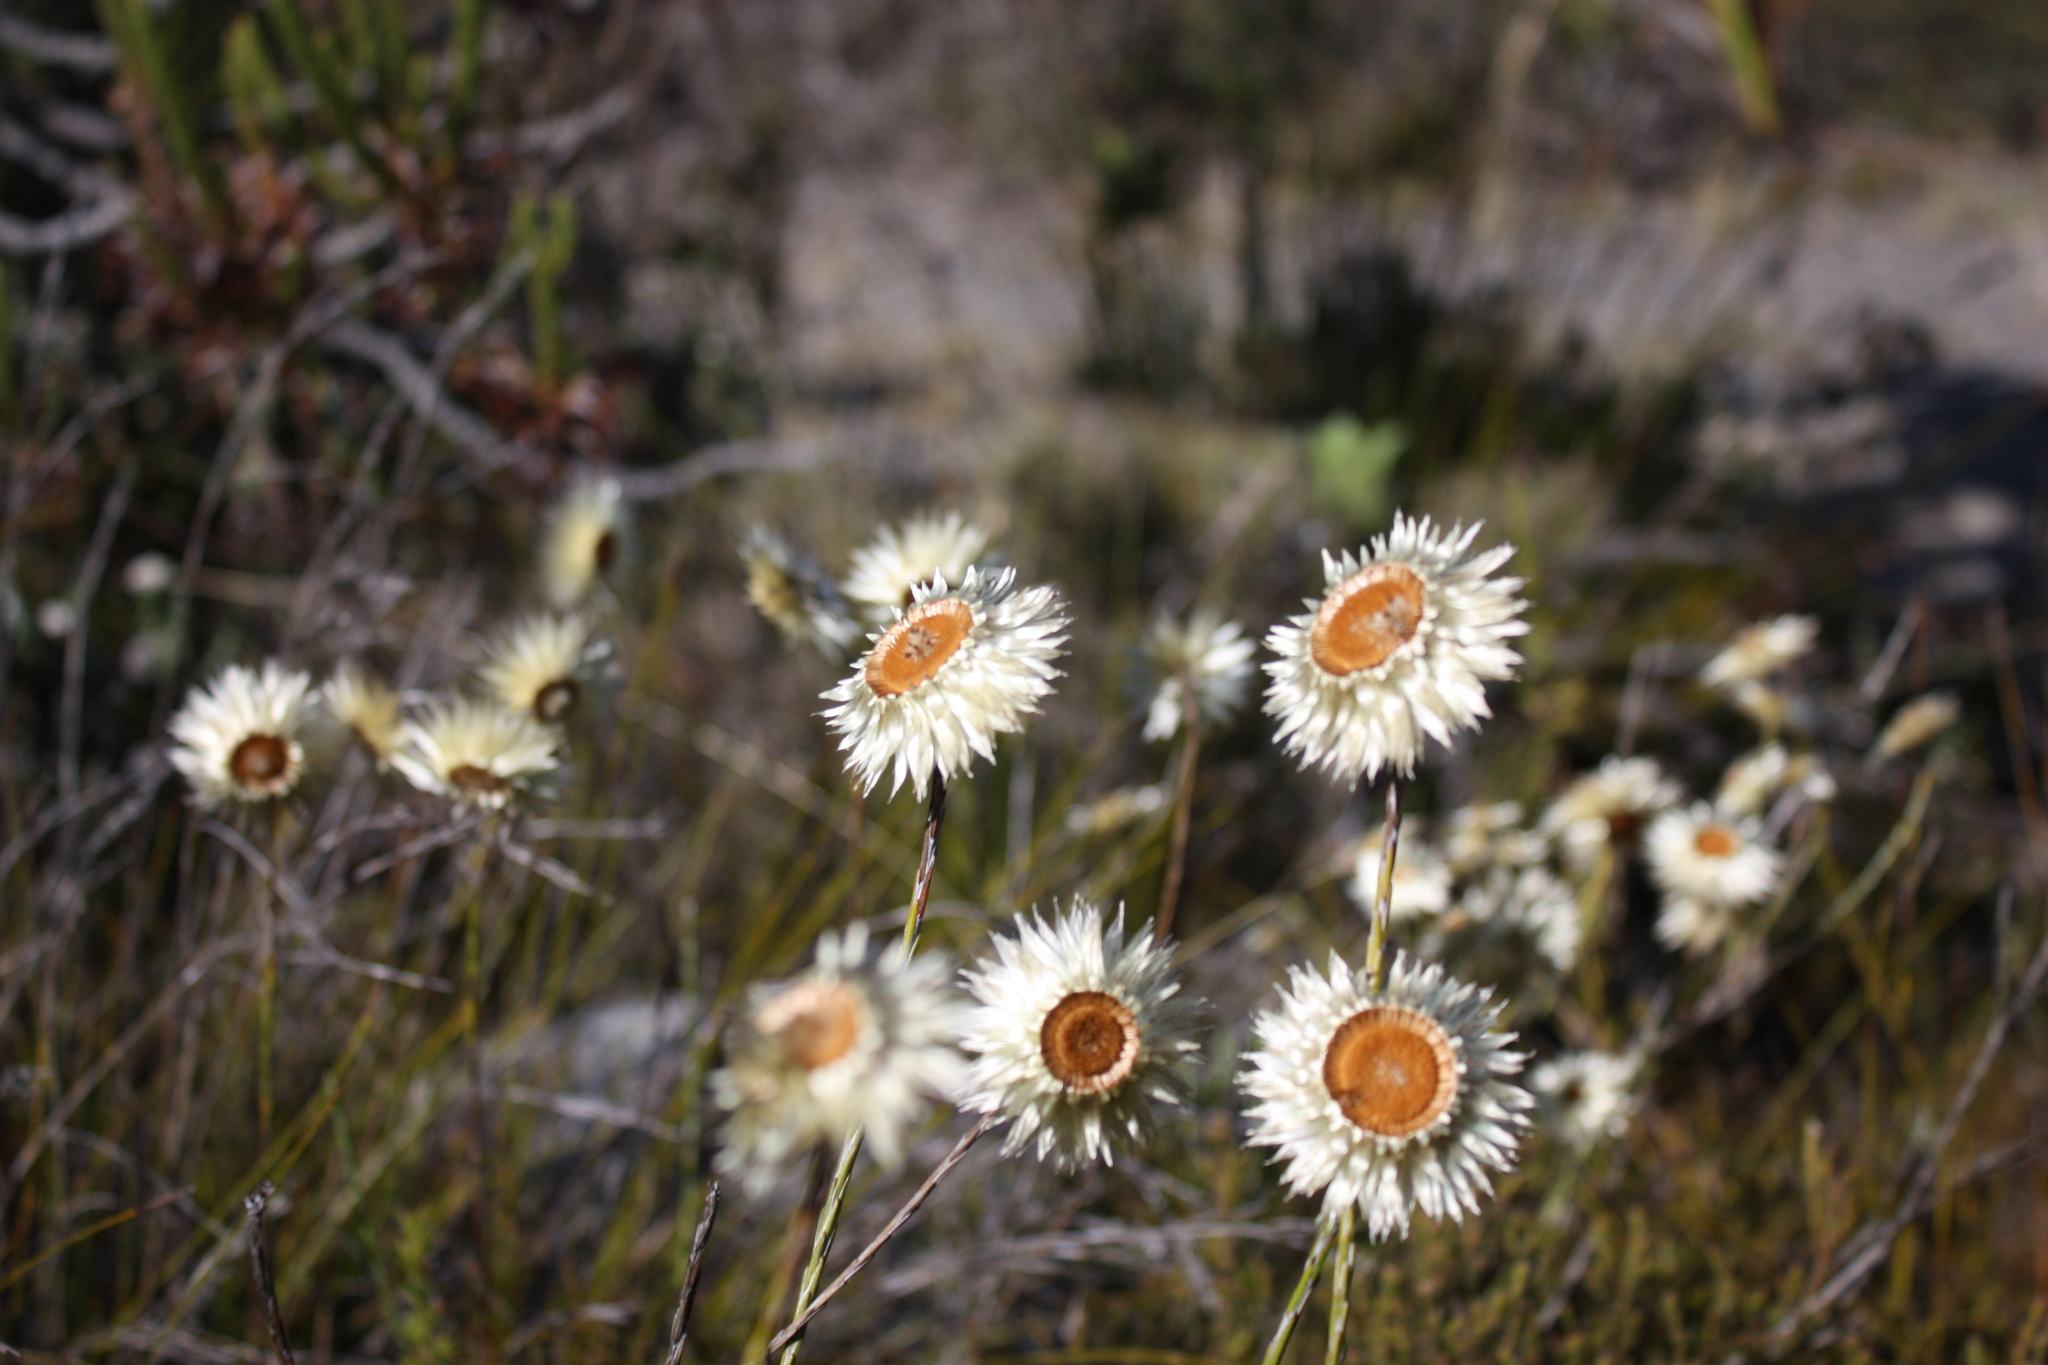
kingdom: Plantae
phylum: Tracheophyta
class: Magnoliopsida
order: Asterales
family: Asteraceae
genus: Edmondia
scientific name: Edmondia sesamoides
